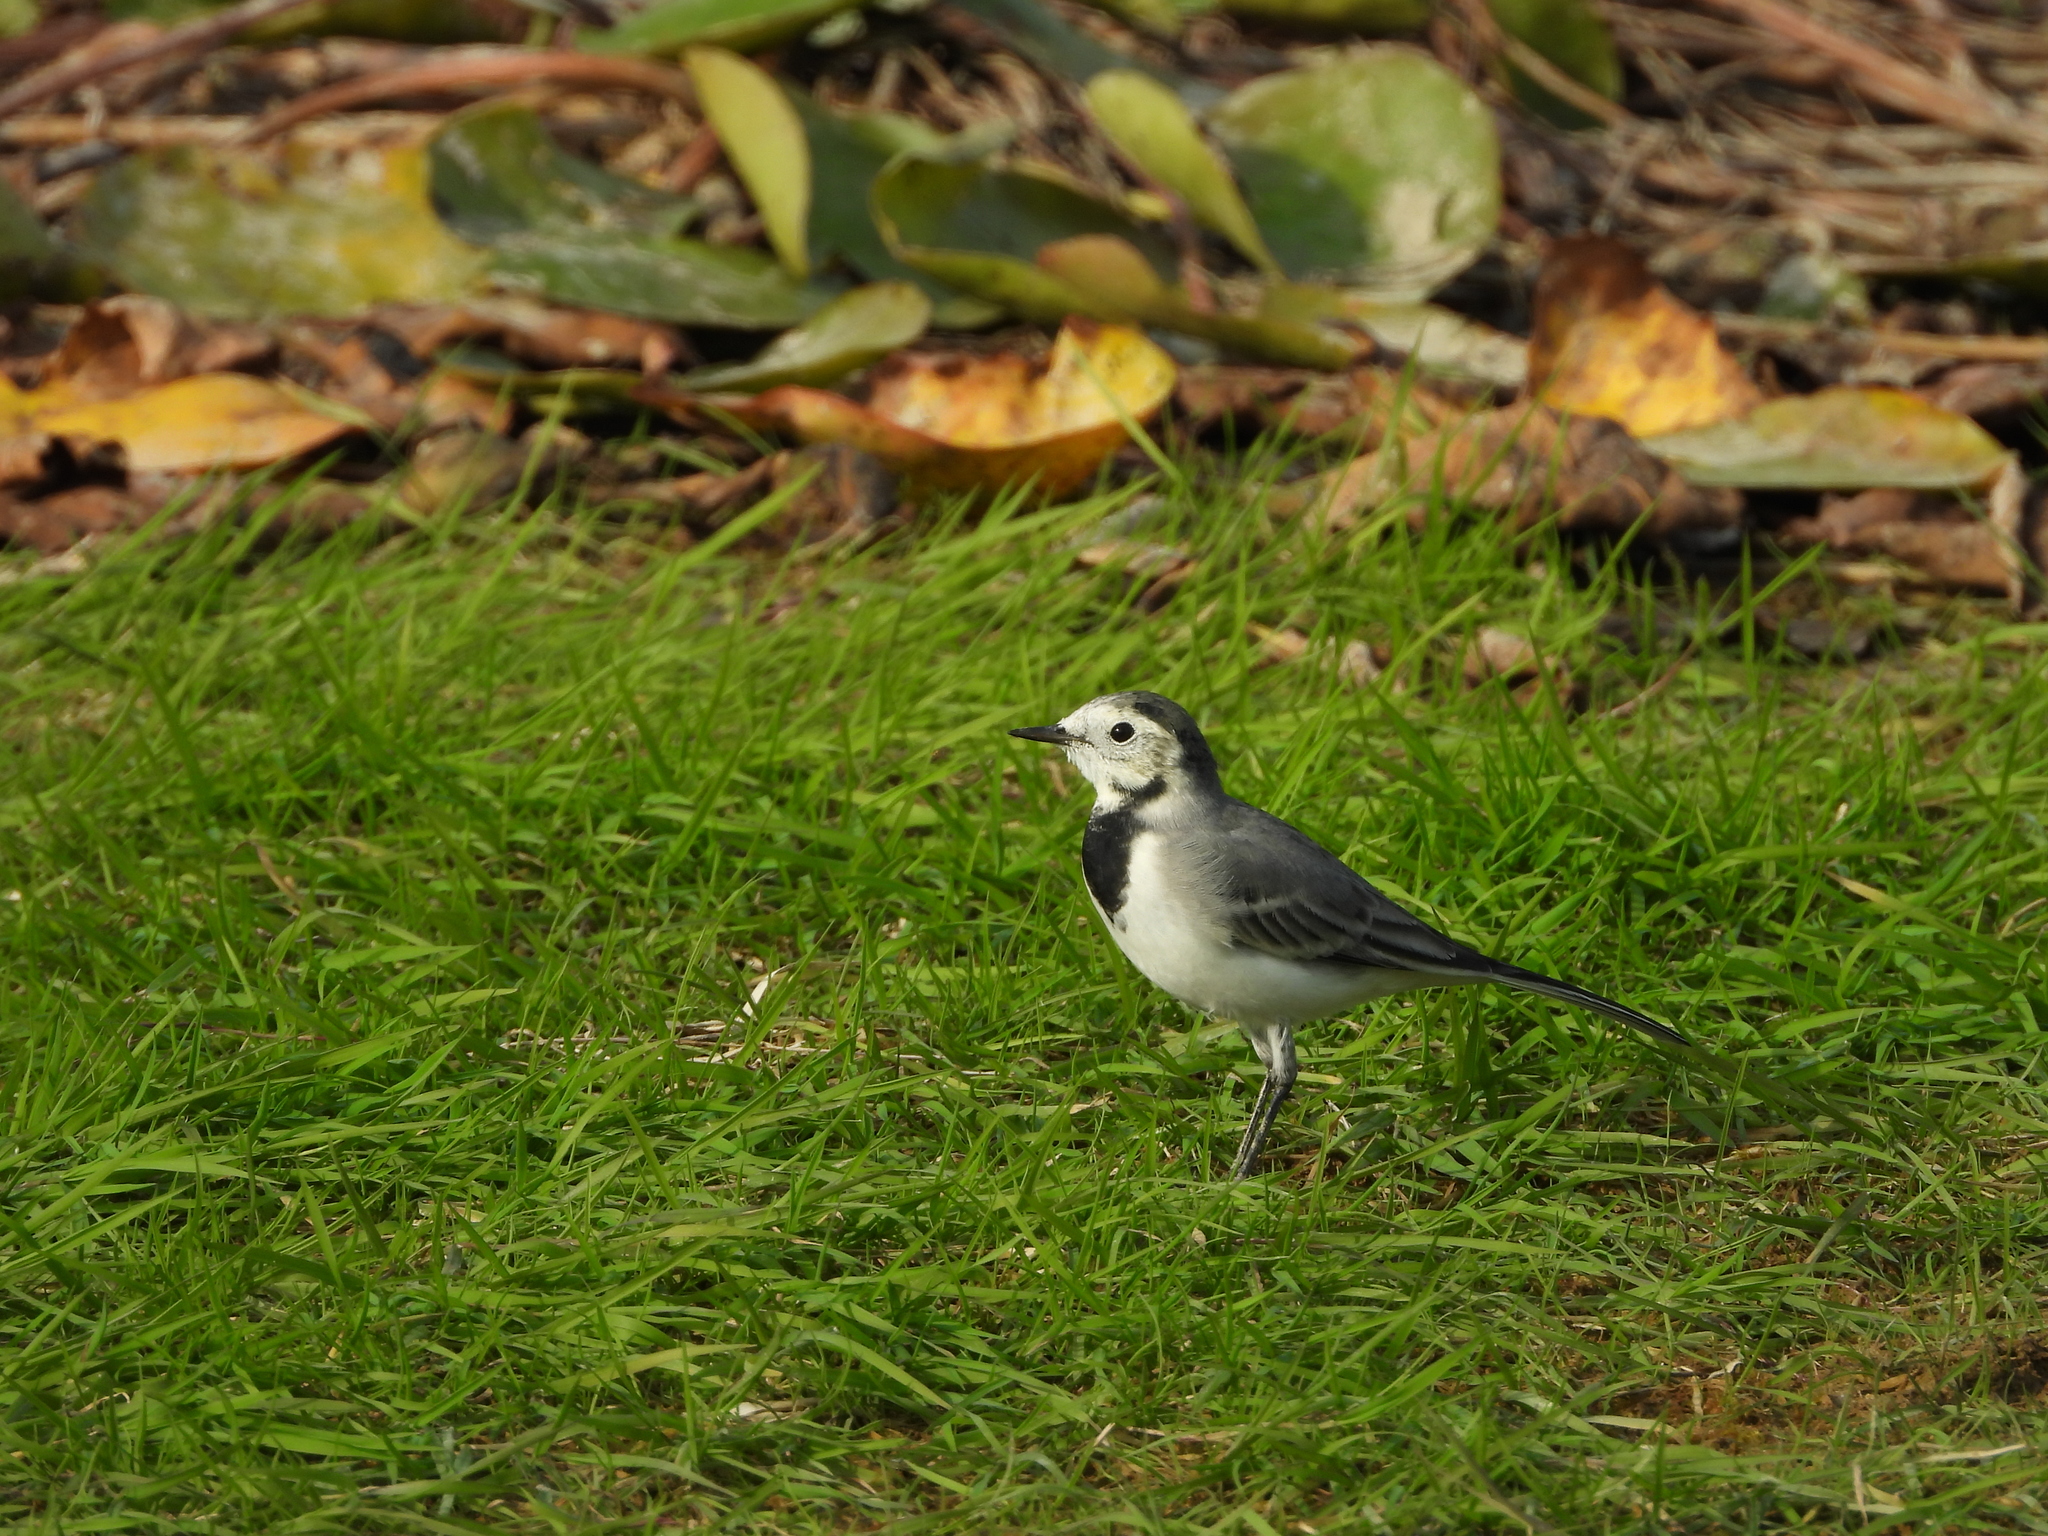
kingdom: Animalia
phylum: Chordata
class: Aves
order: Passeriformes
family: Motacillidae
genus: Motacilla
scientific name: Motacilla alba
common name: White wagtail
